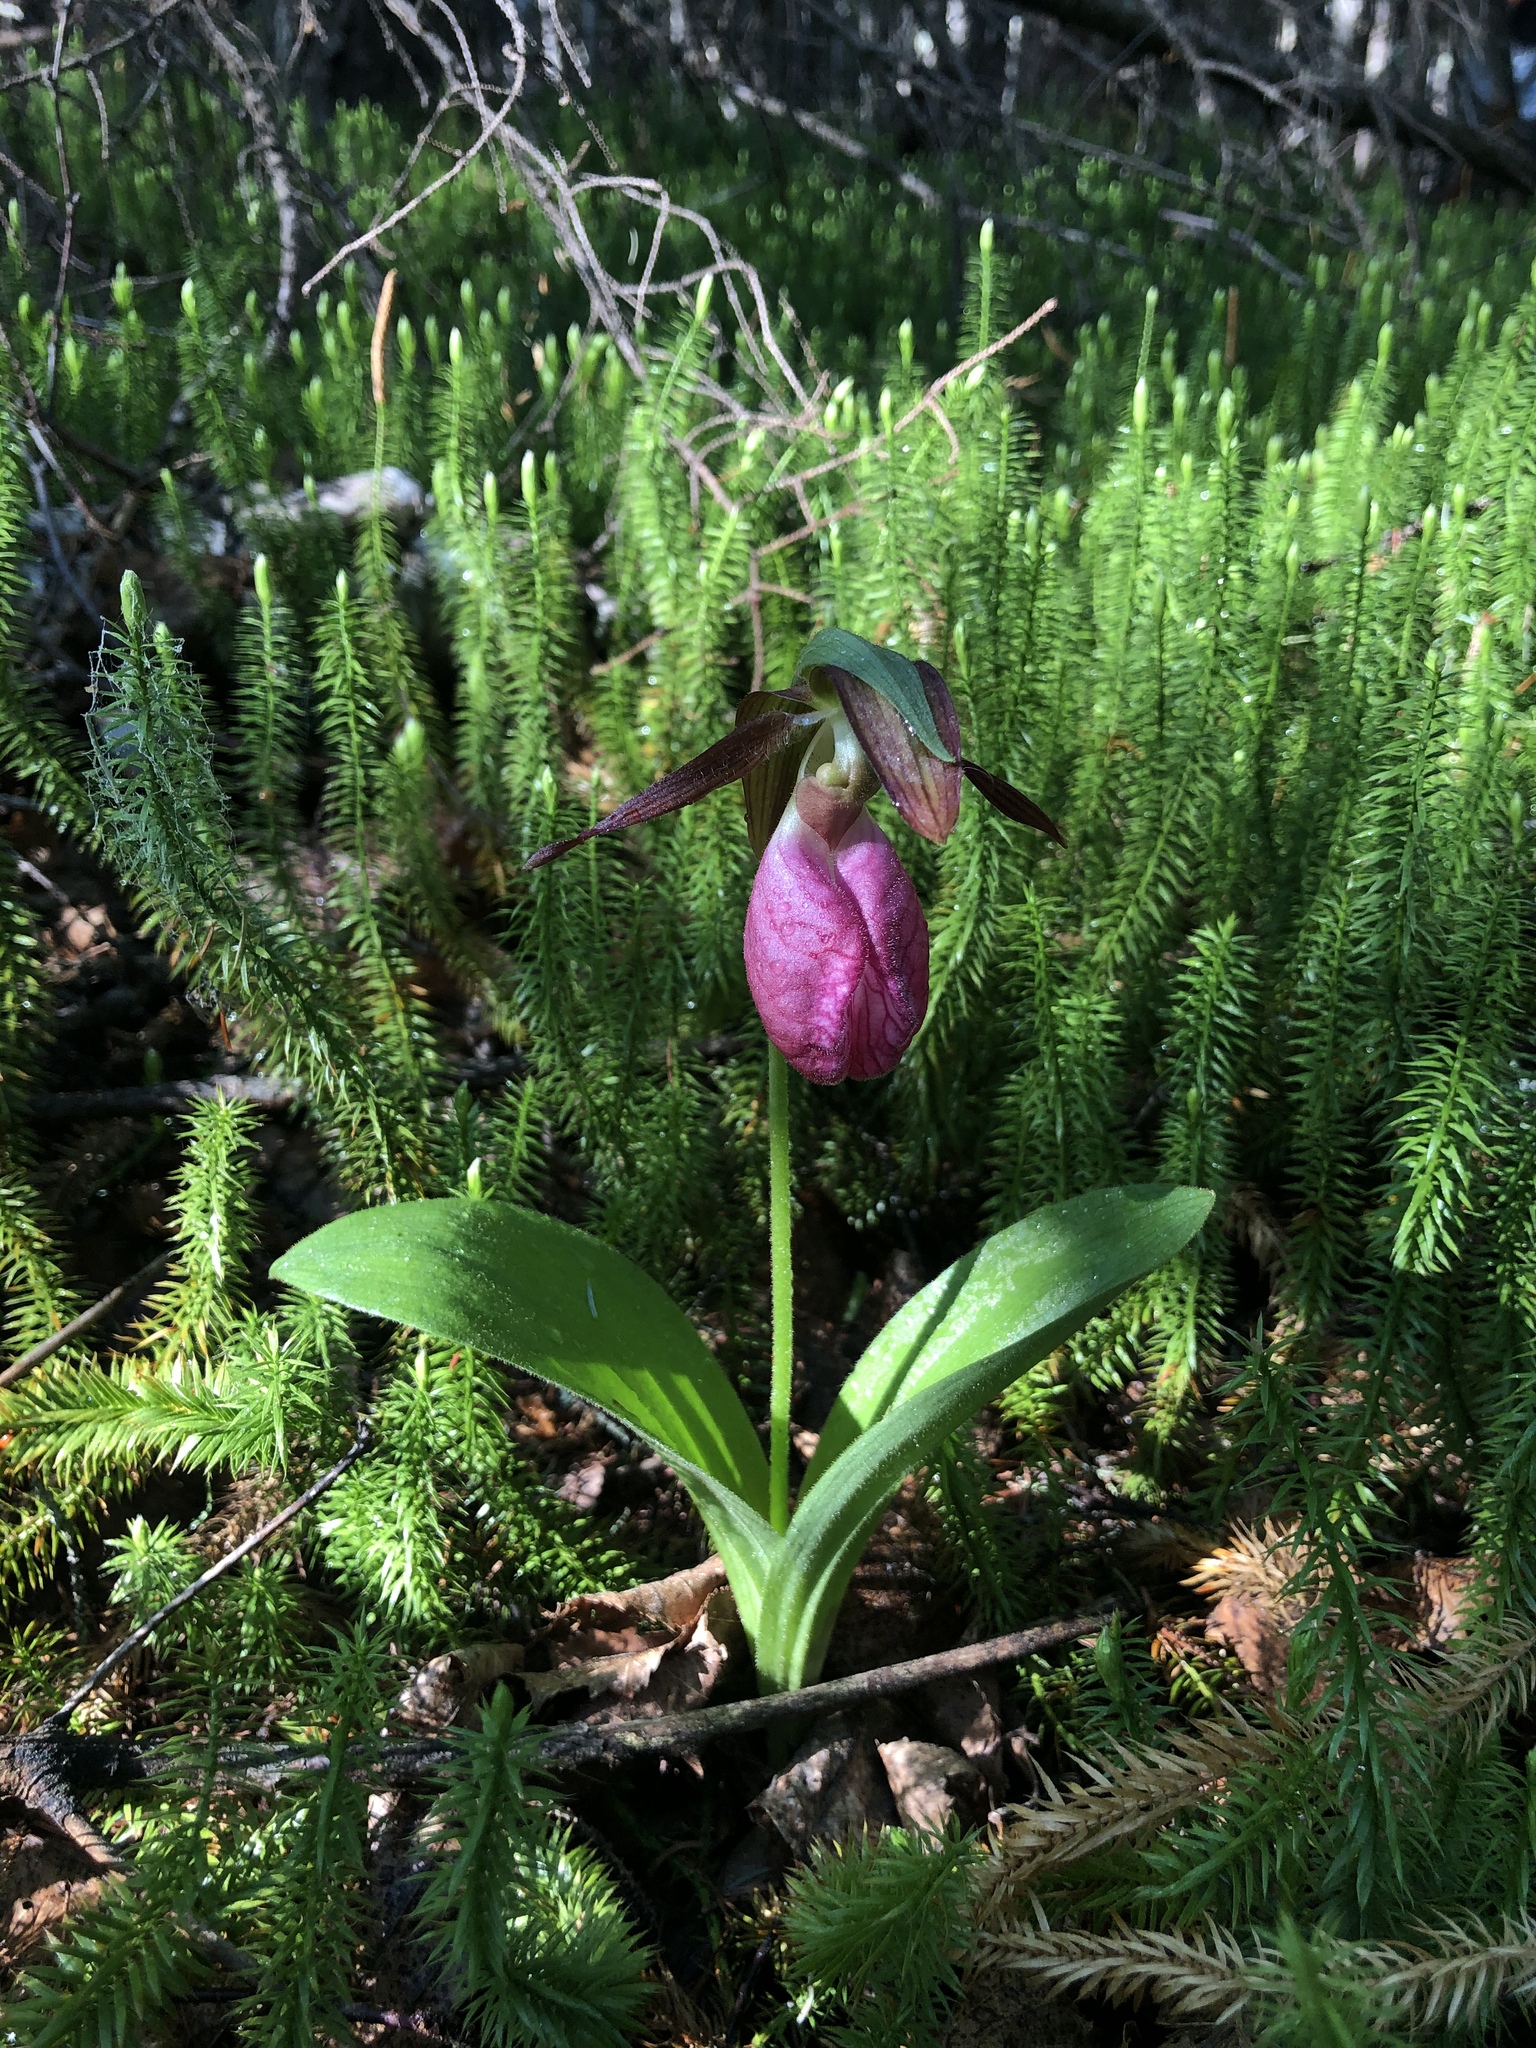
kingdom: Plantae
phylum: Tracheophyta
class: Liliopsida
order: Asparagales
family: Orchidaceae
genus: Cypripedium
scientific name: Cypripedium acaule
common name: Pink lady's-slipper
